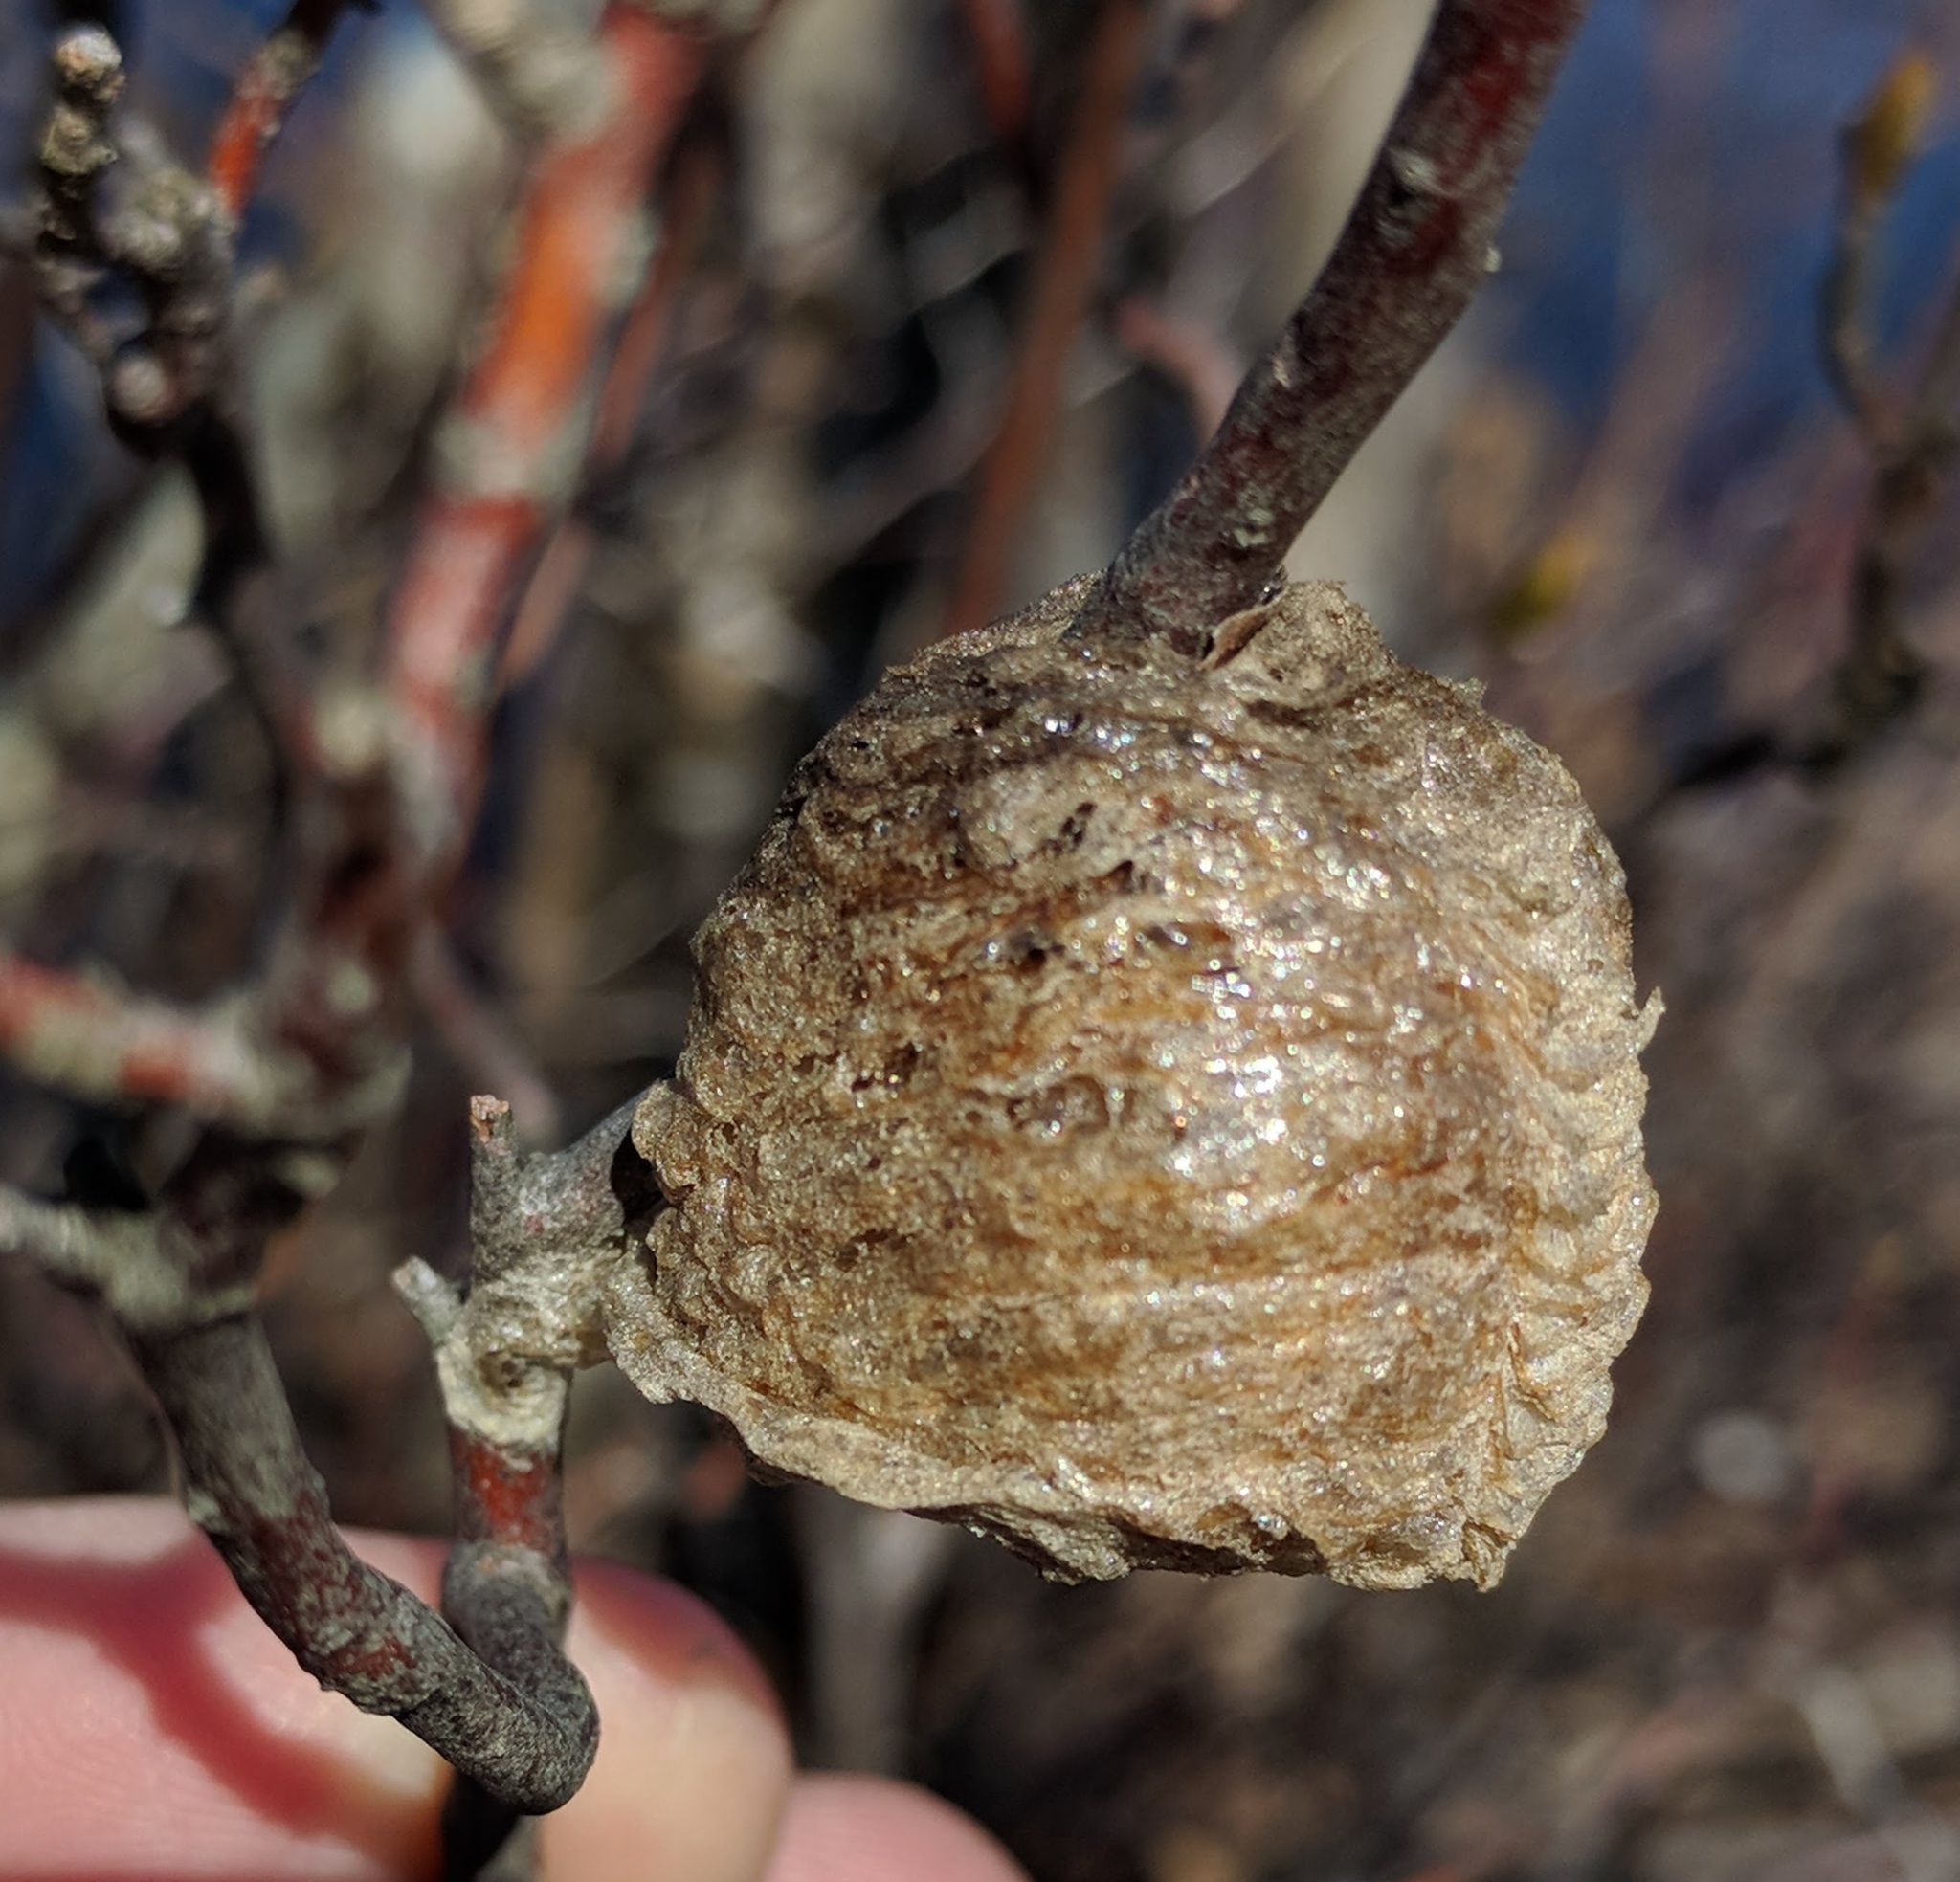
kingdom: Animalia
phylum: Arthropoda
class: Insecta
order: Mantodea
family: Mantidae
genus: Tenodera
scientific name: Tenodera sinensis
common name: Chinese mantis
